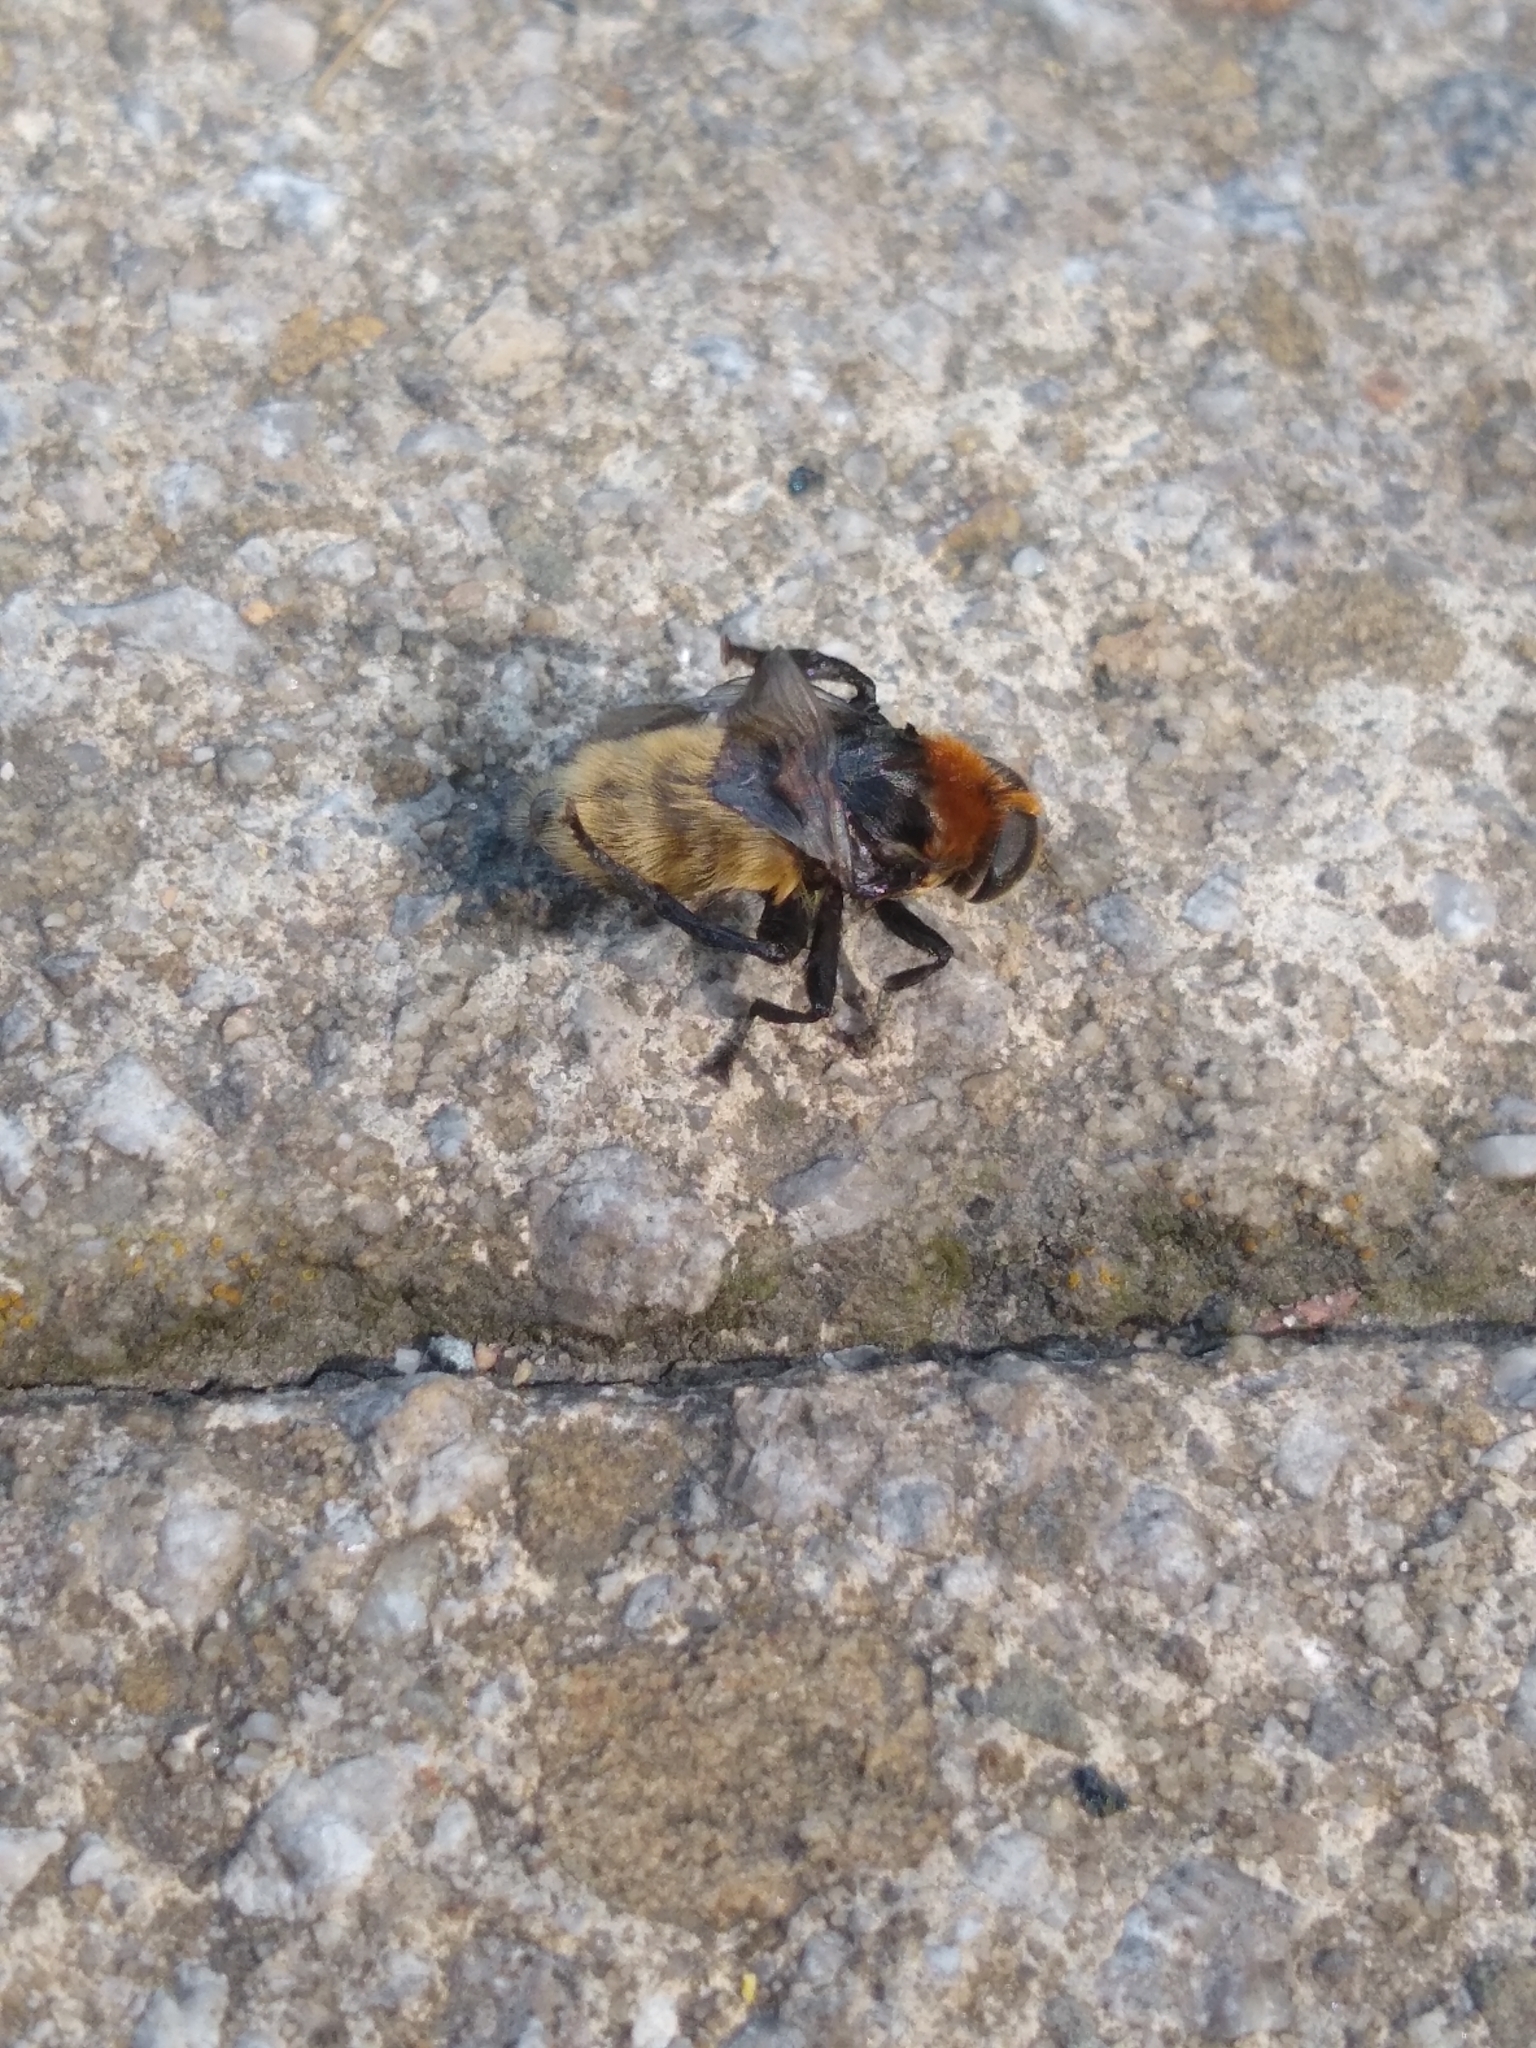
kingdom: Animalia
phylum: Arthropoda
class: Insecta
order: Diptera
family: Syrphidae
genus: Merodon
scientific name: Merodon equestris
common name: Greater bulb-fly
